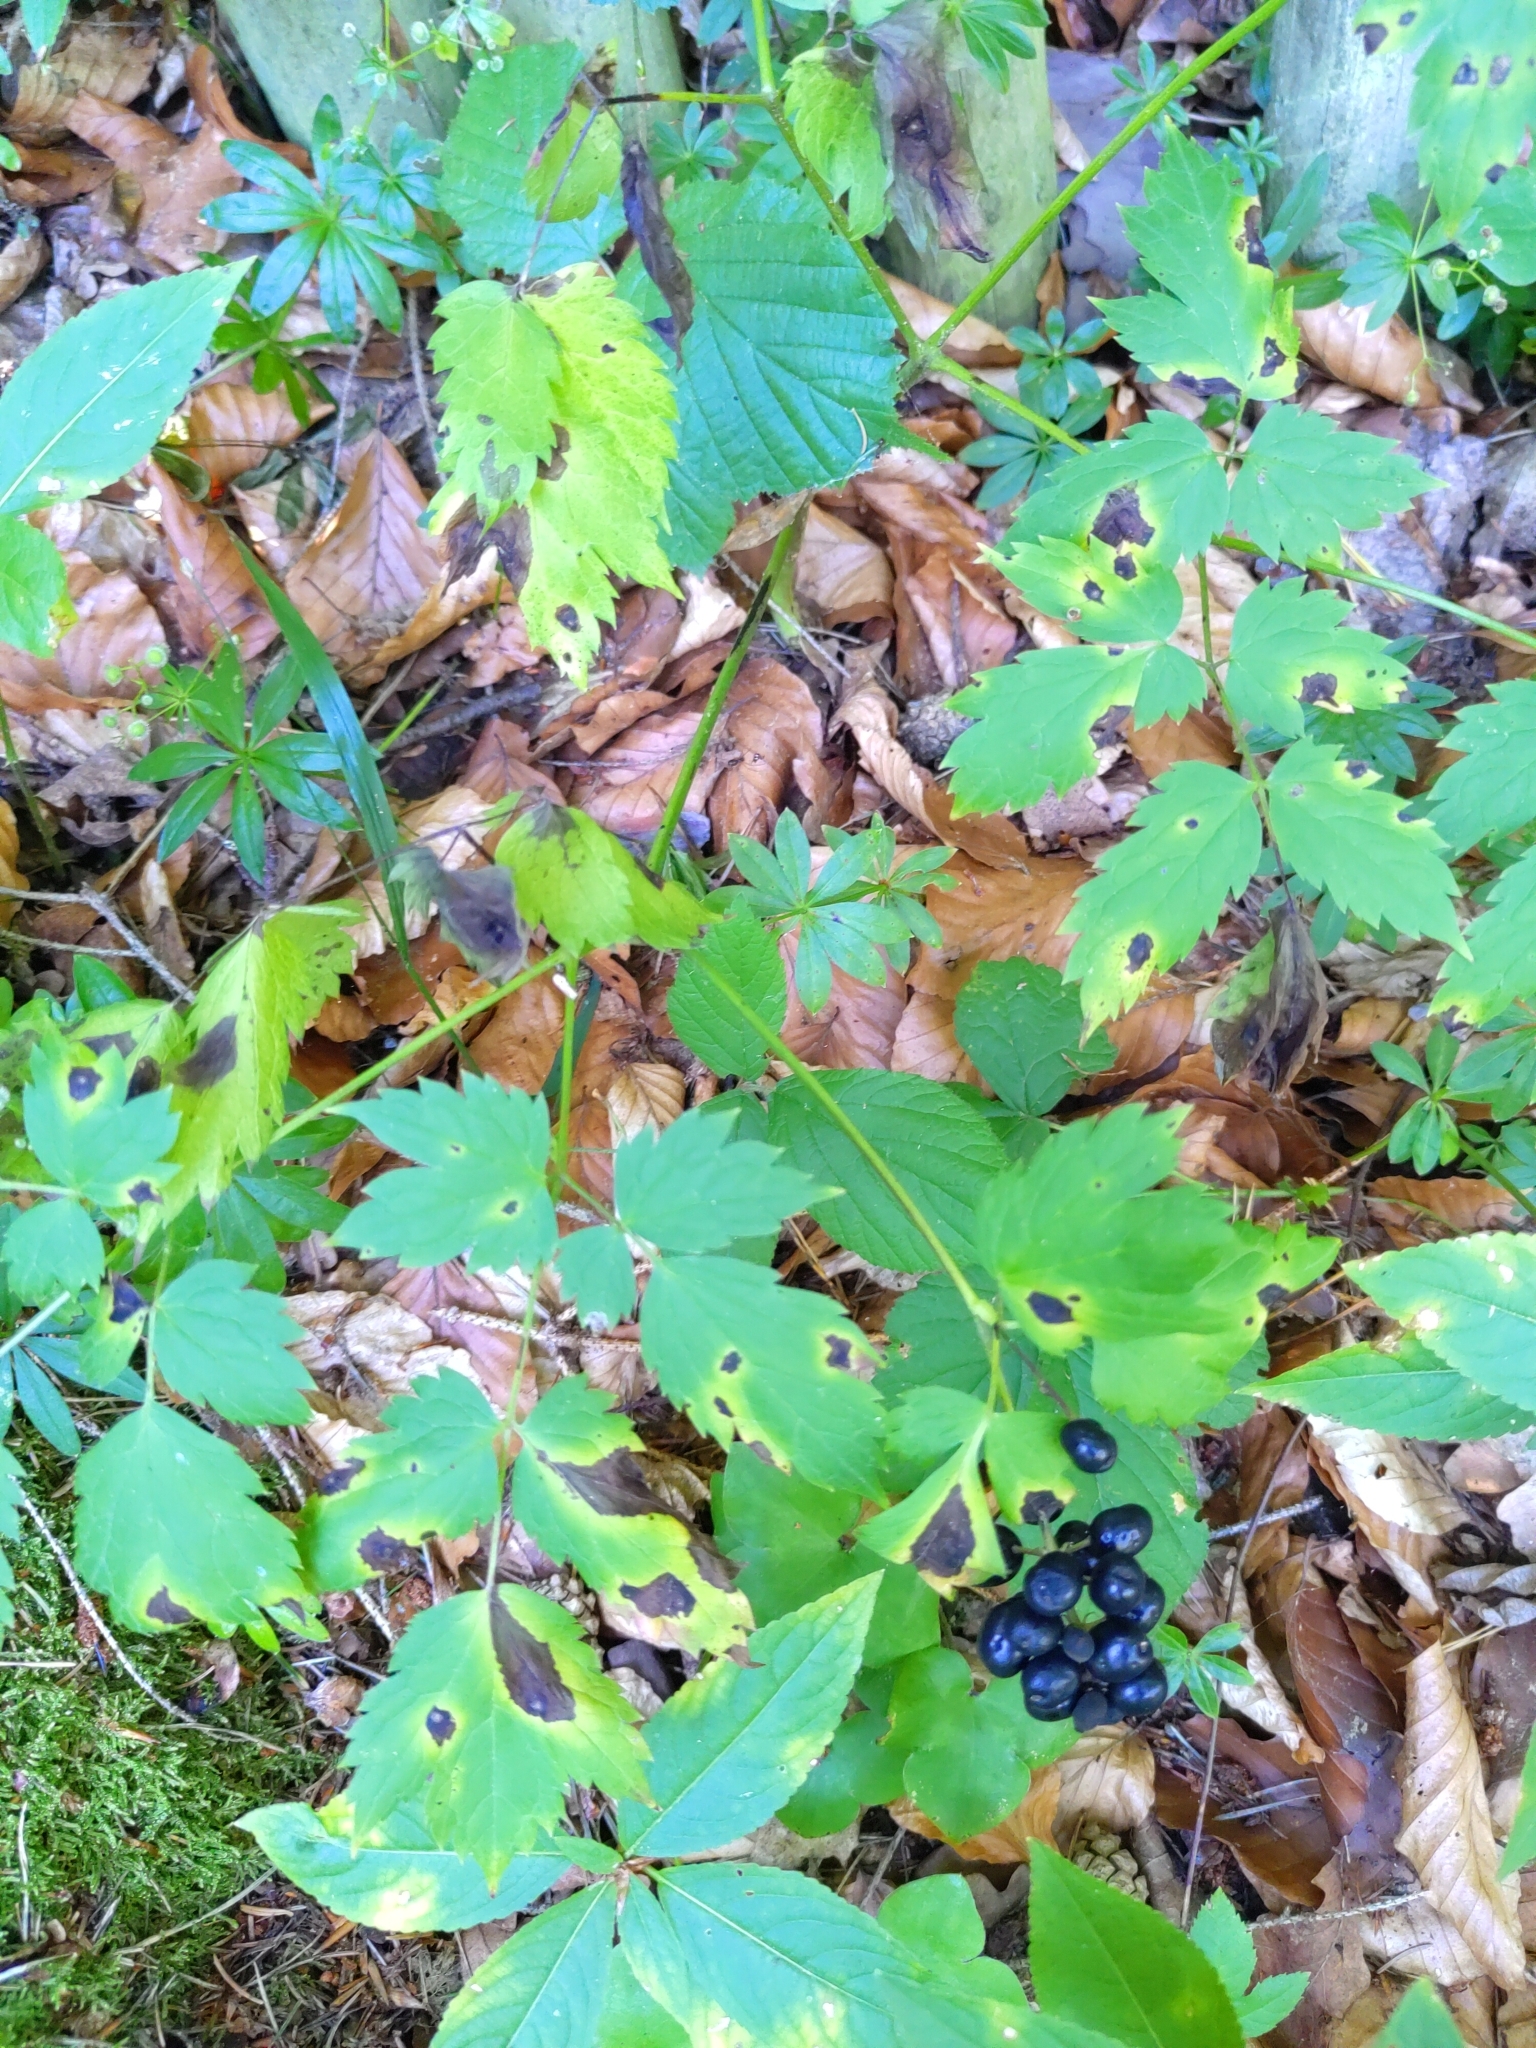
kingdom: Plantae
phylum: Tracheophyta
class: Magnoliopsida
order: Ranunculales
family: Ranunculaceae
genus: Actaea
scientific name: Actaea spicata
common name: Baneberry
